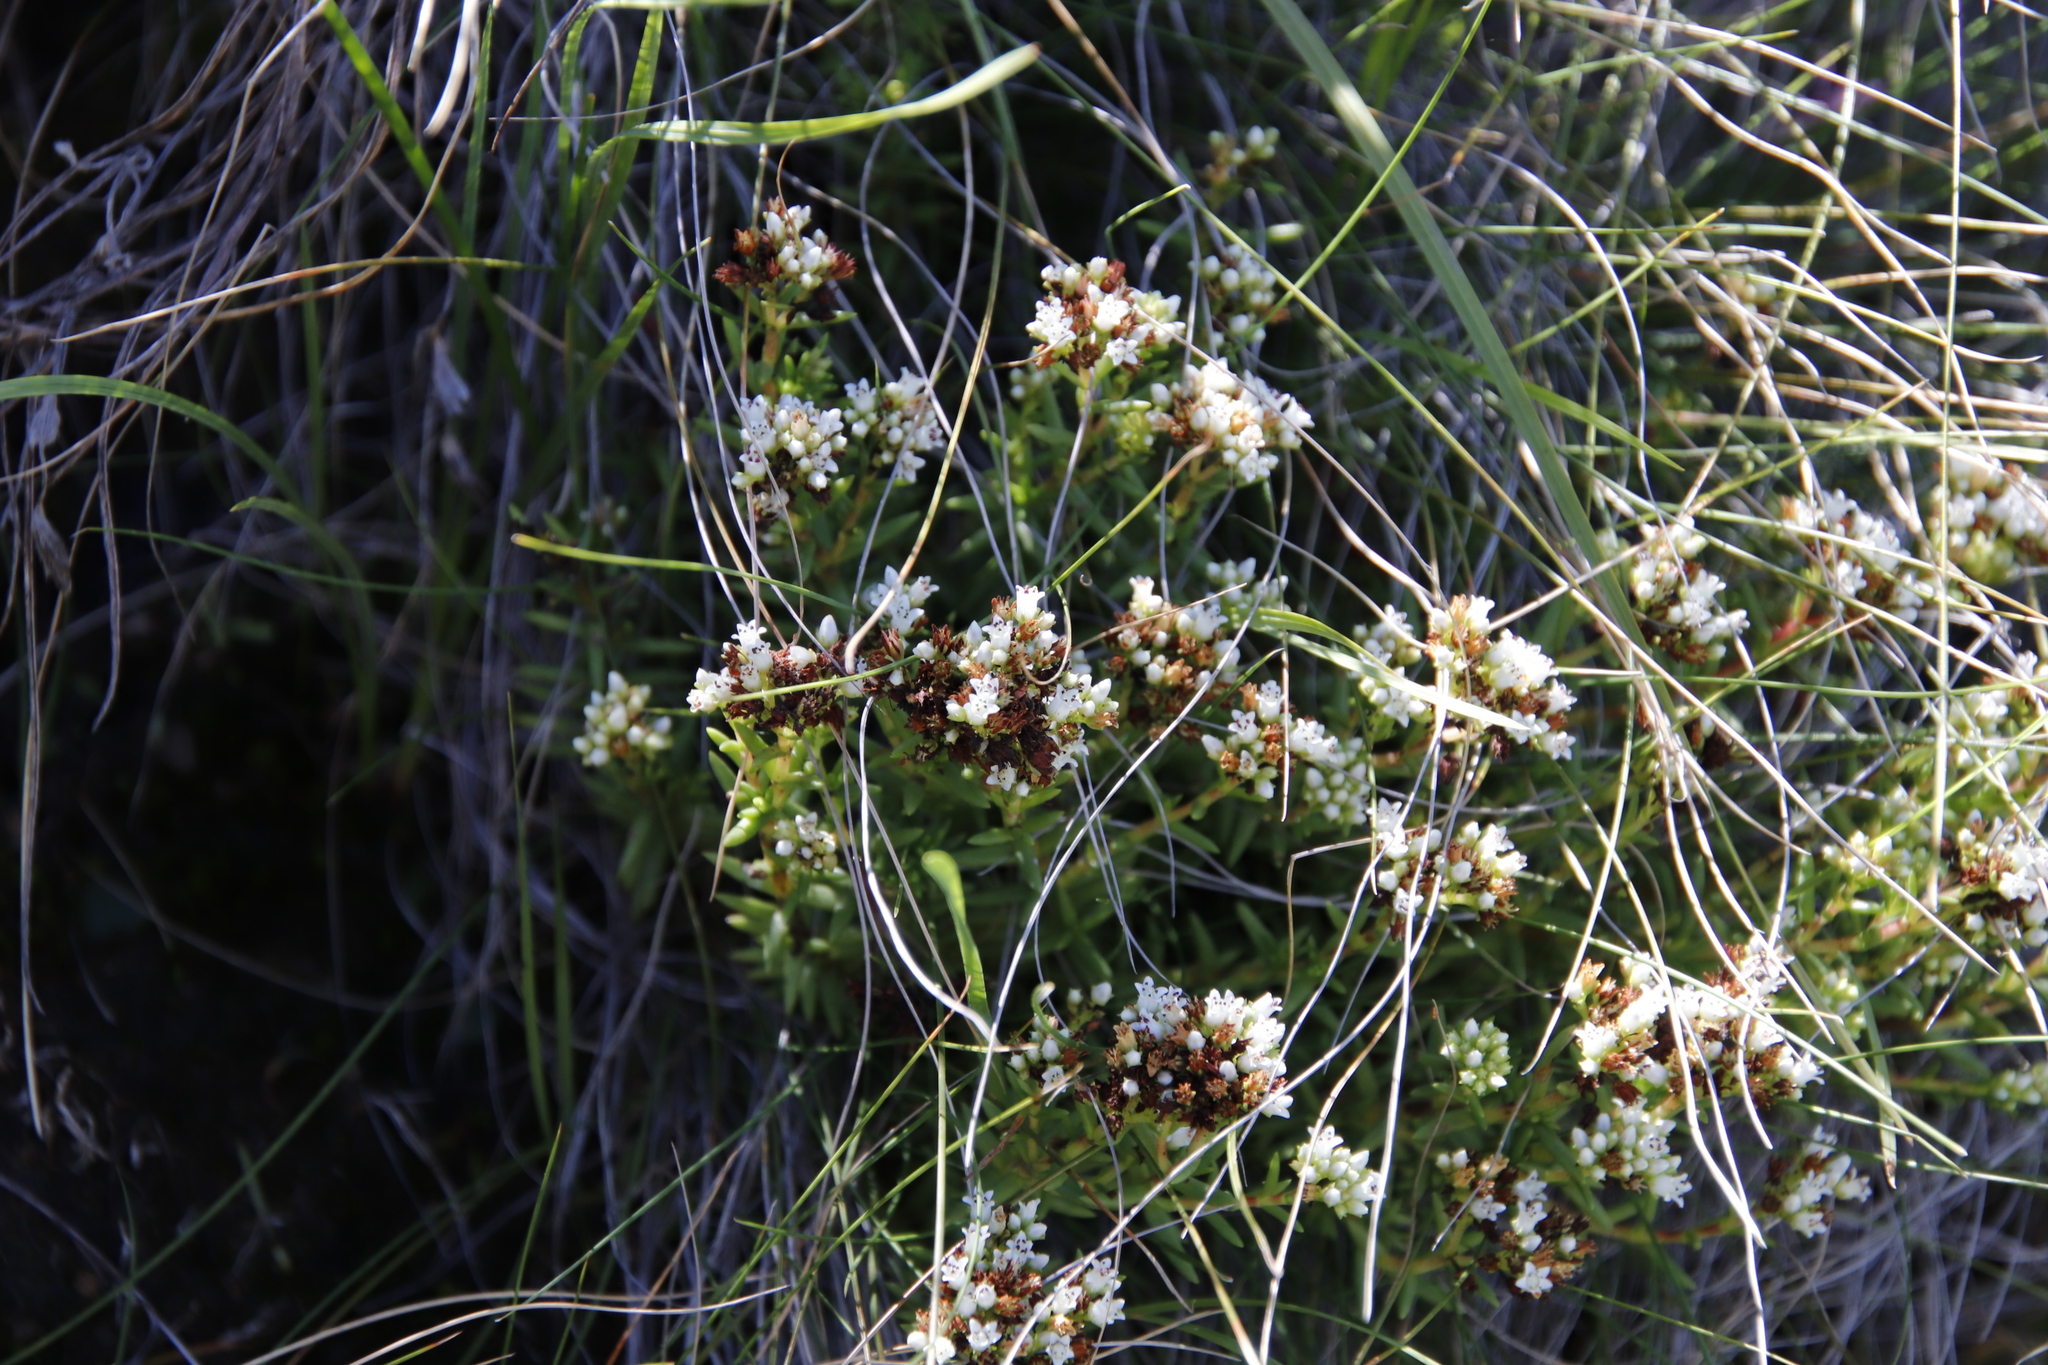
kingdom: Plantae
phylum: Tracheophyta
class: Magnoliopsida
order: Saxifragales
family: Crassulaceae
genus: Crassula
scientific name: Crassula dependens
